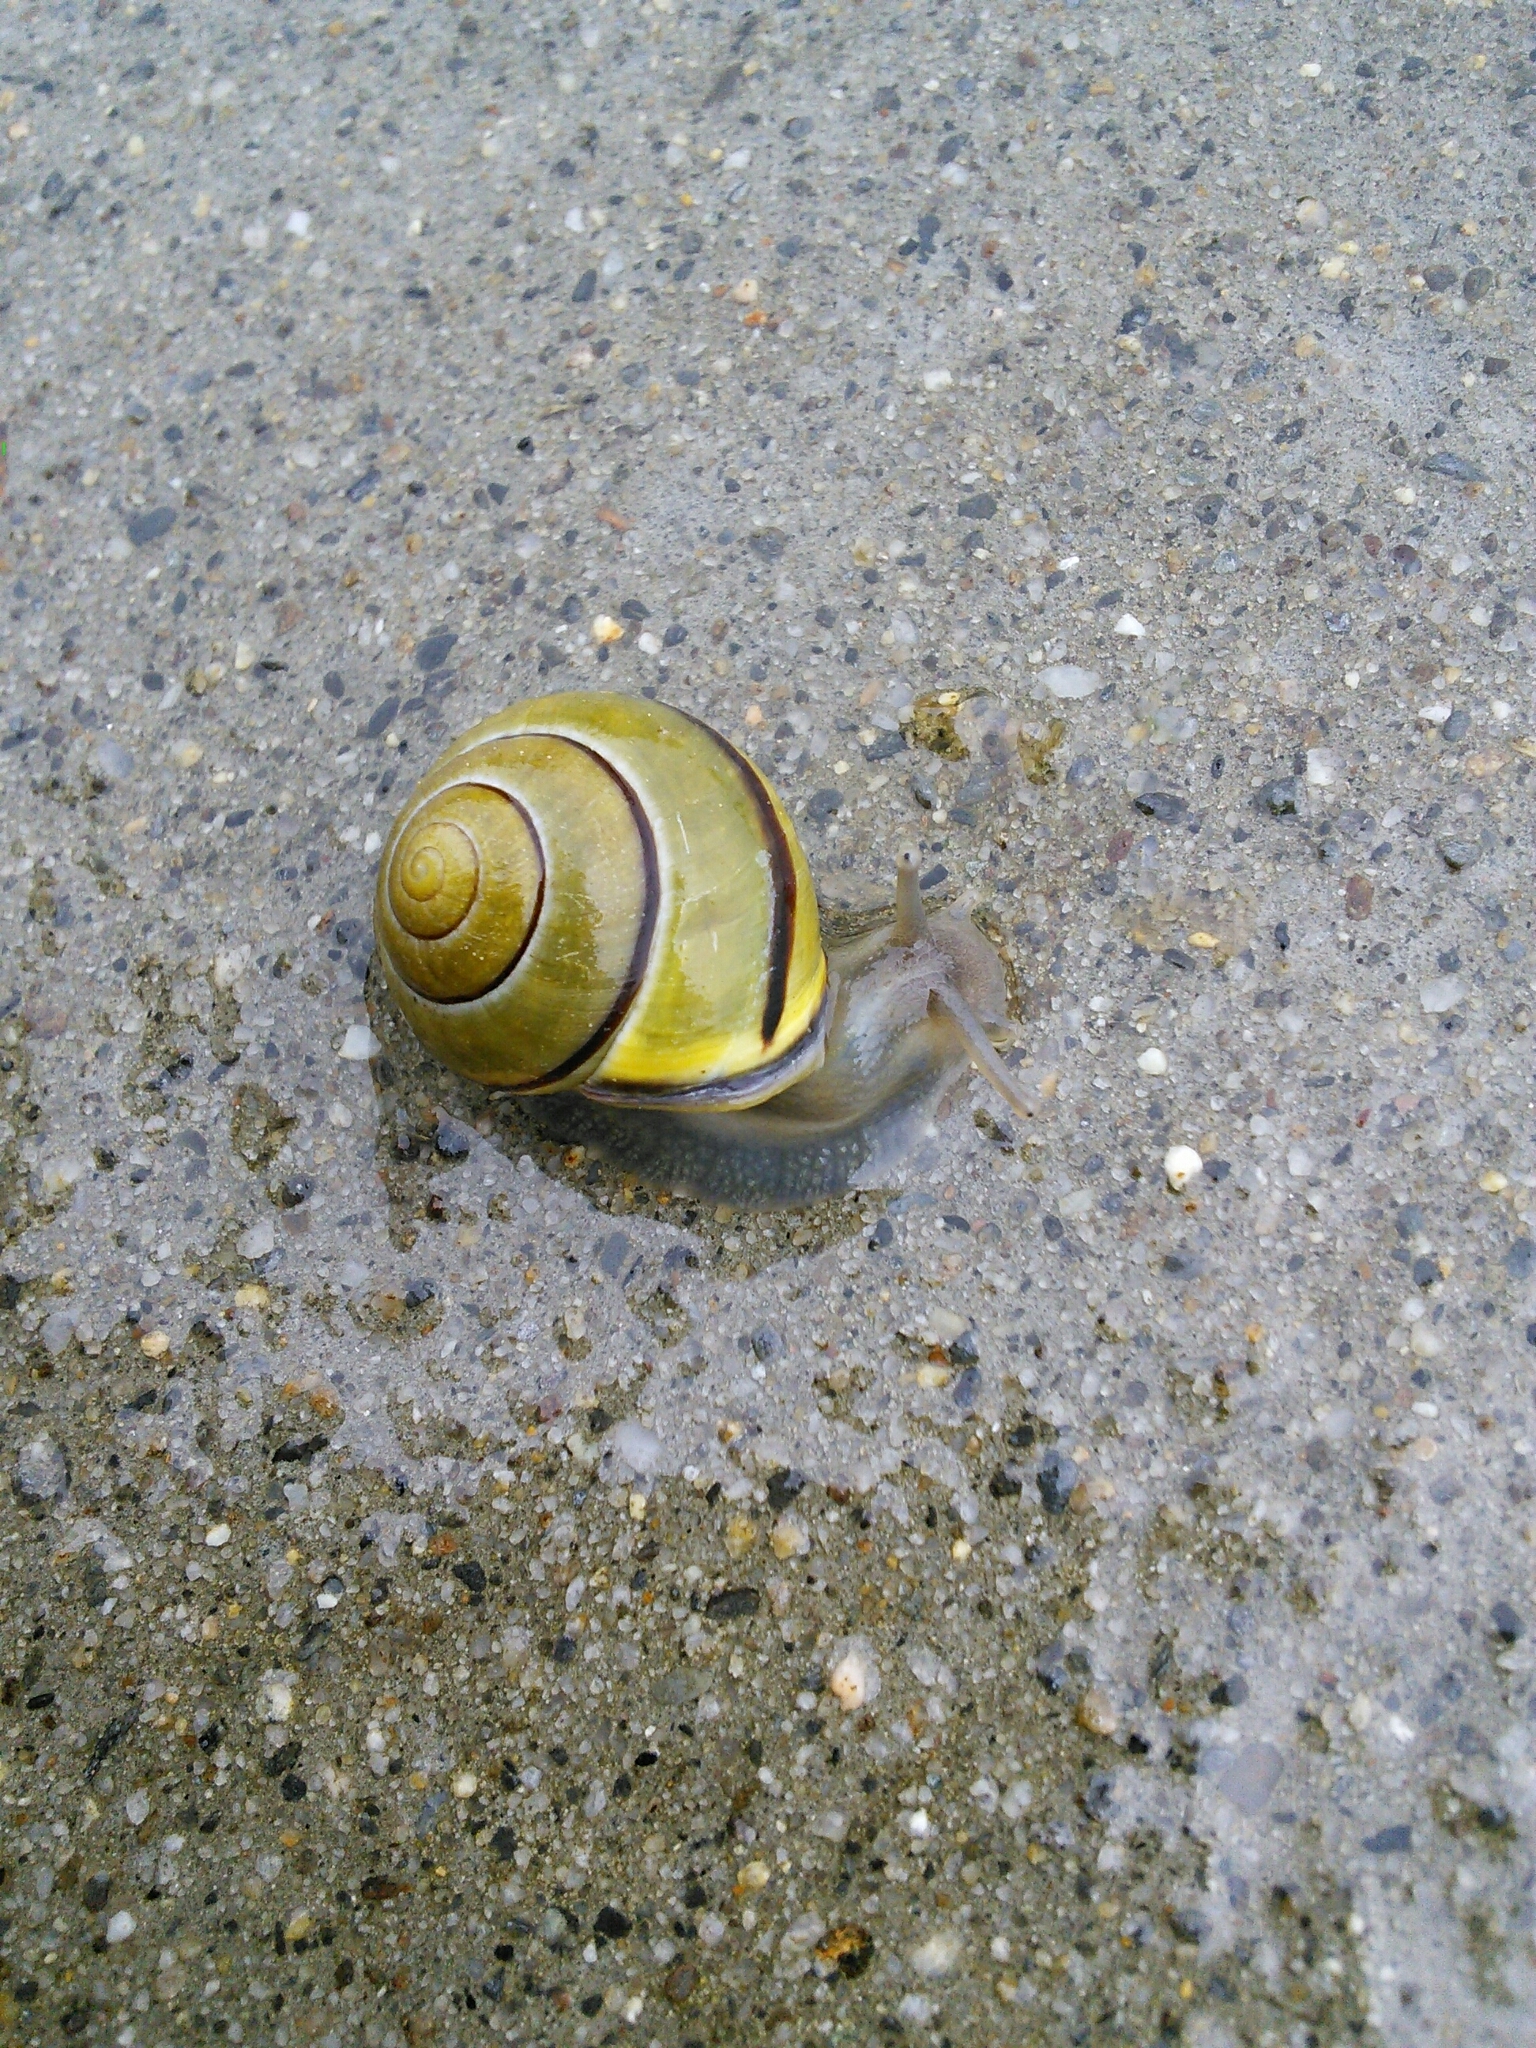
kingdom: Animalia
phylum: Mollusca
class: Gastropoda
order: Stylommatophora
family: Helicidae
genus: Cepaea
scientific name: Cepaea nemoralis
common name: Grovesnail
